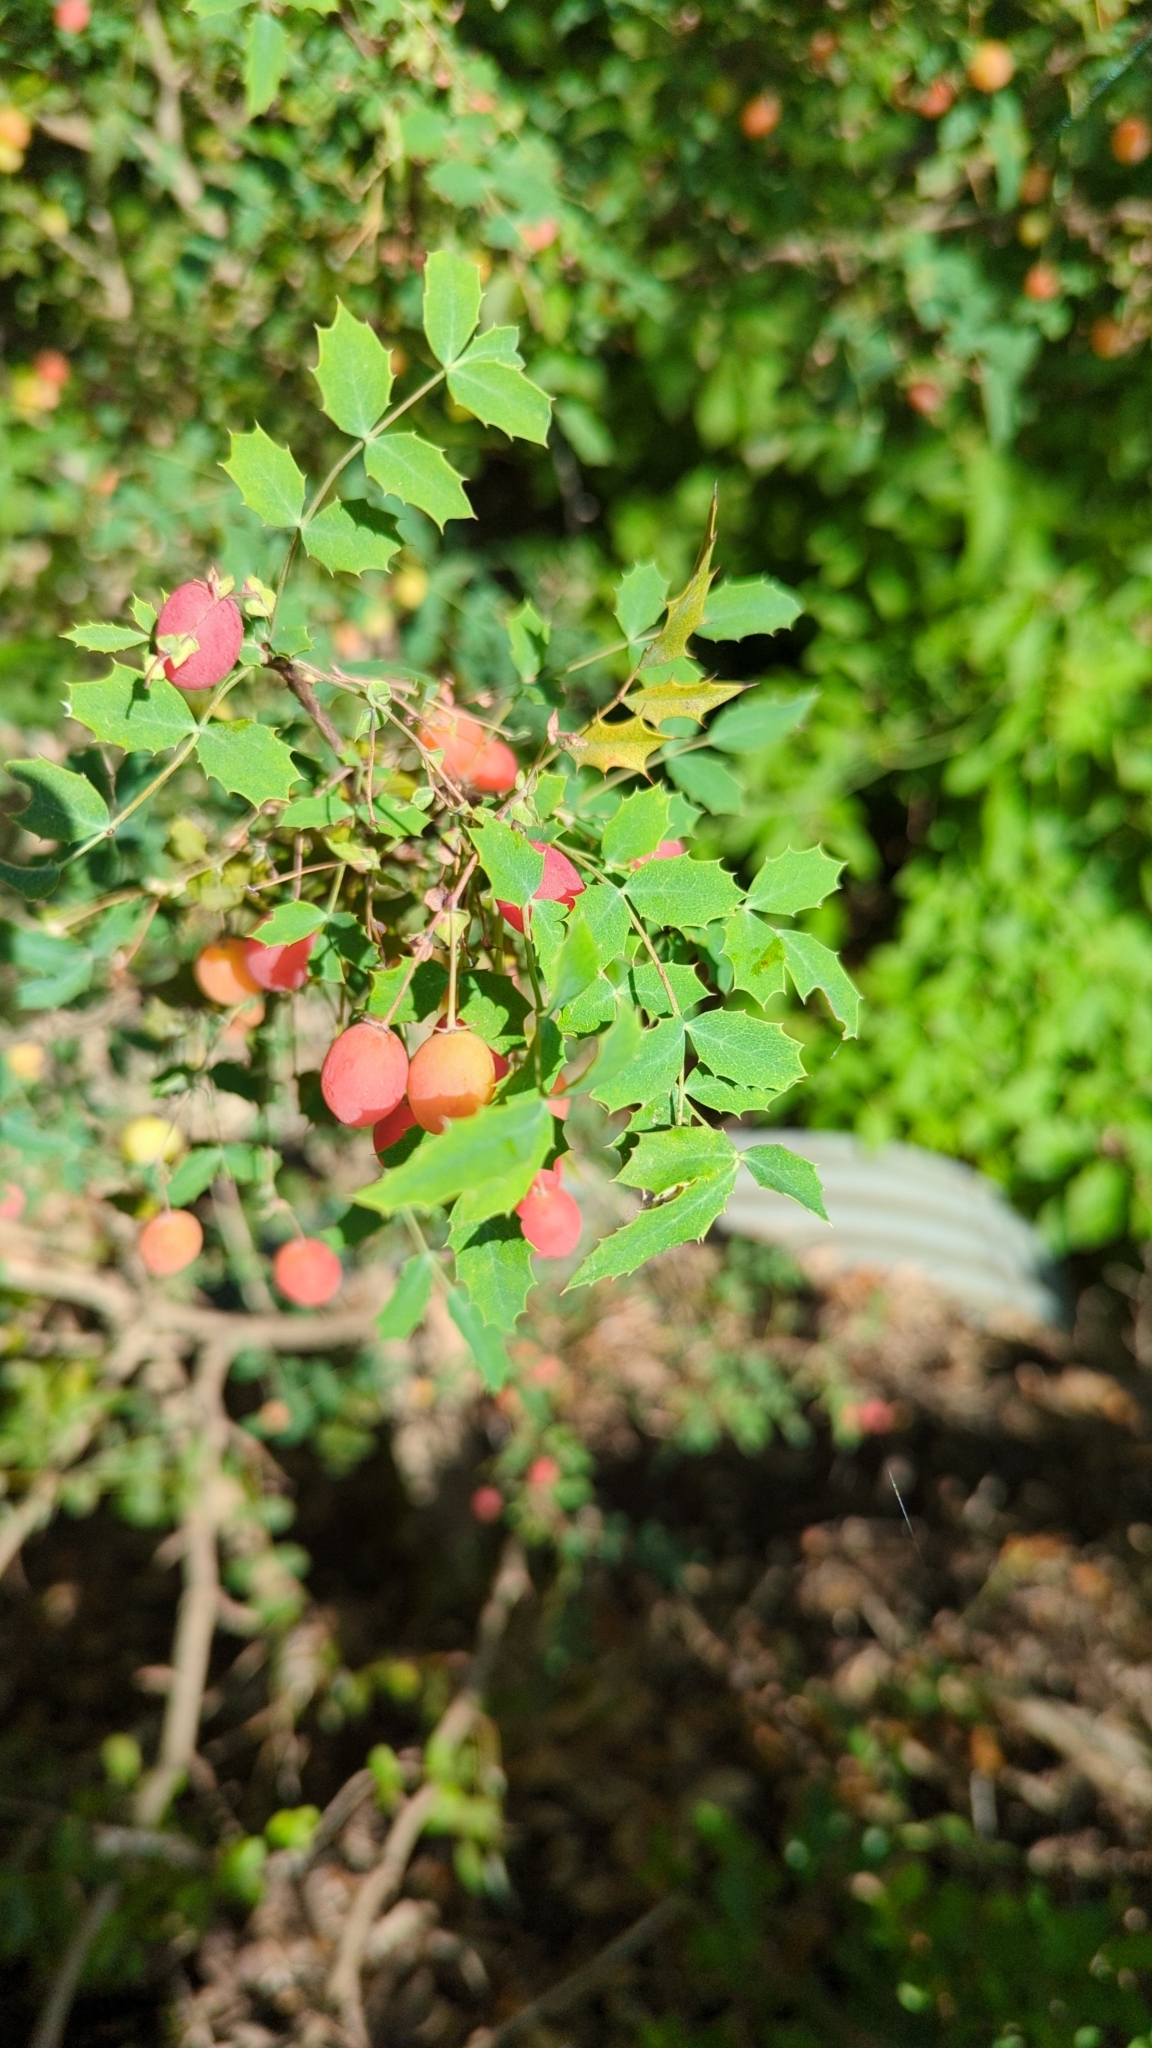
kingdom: Plantae
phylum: Tracheophyta
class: Magnoliopsida
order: Ranunculales
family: Berberidaceae
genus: Berberis
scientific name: Berberis swaseyi
